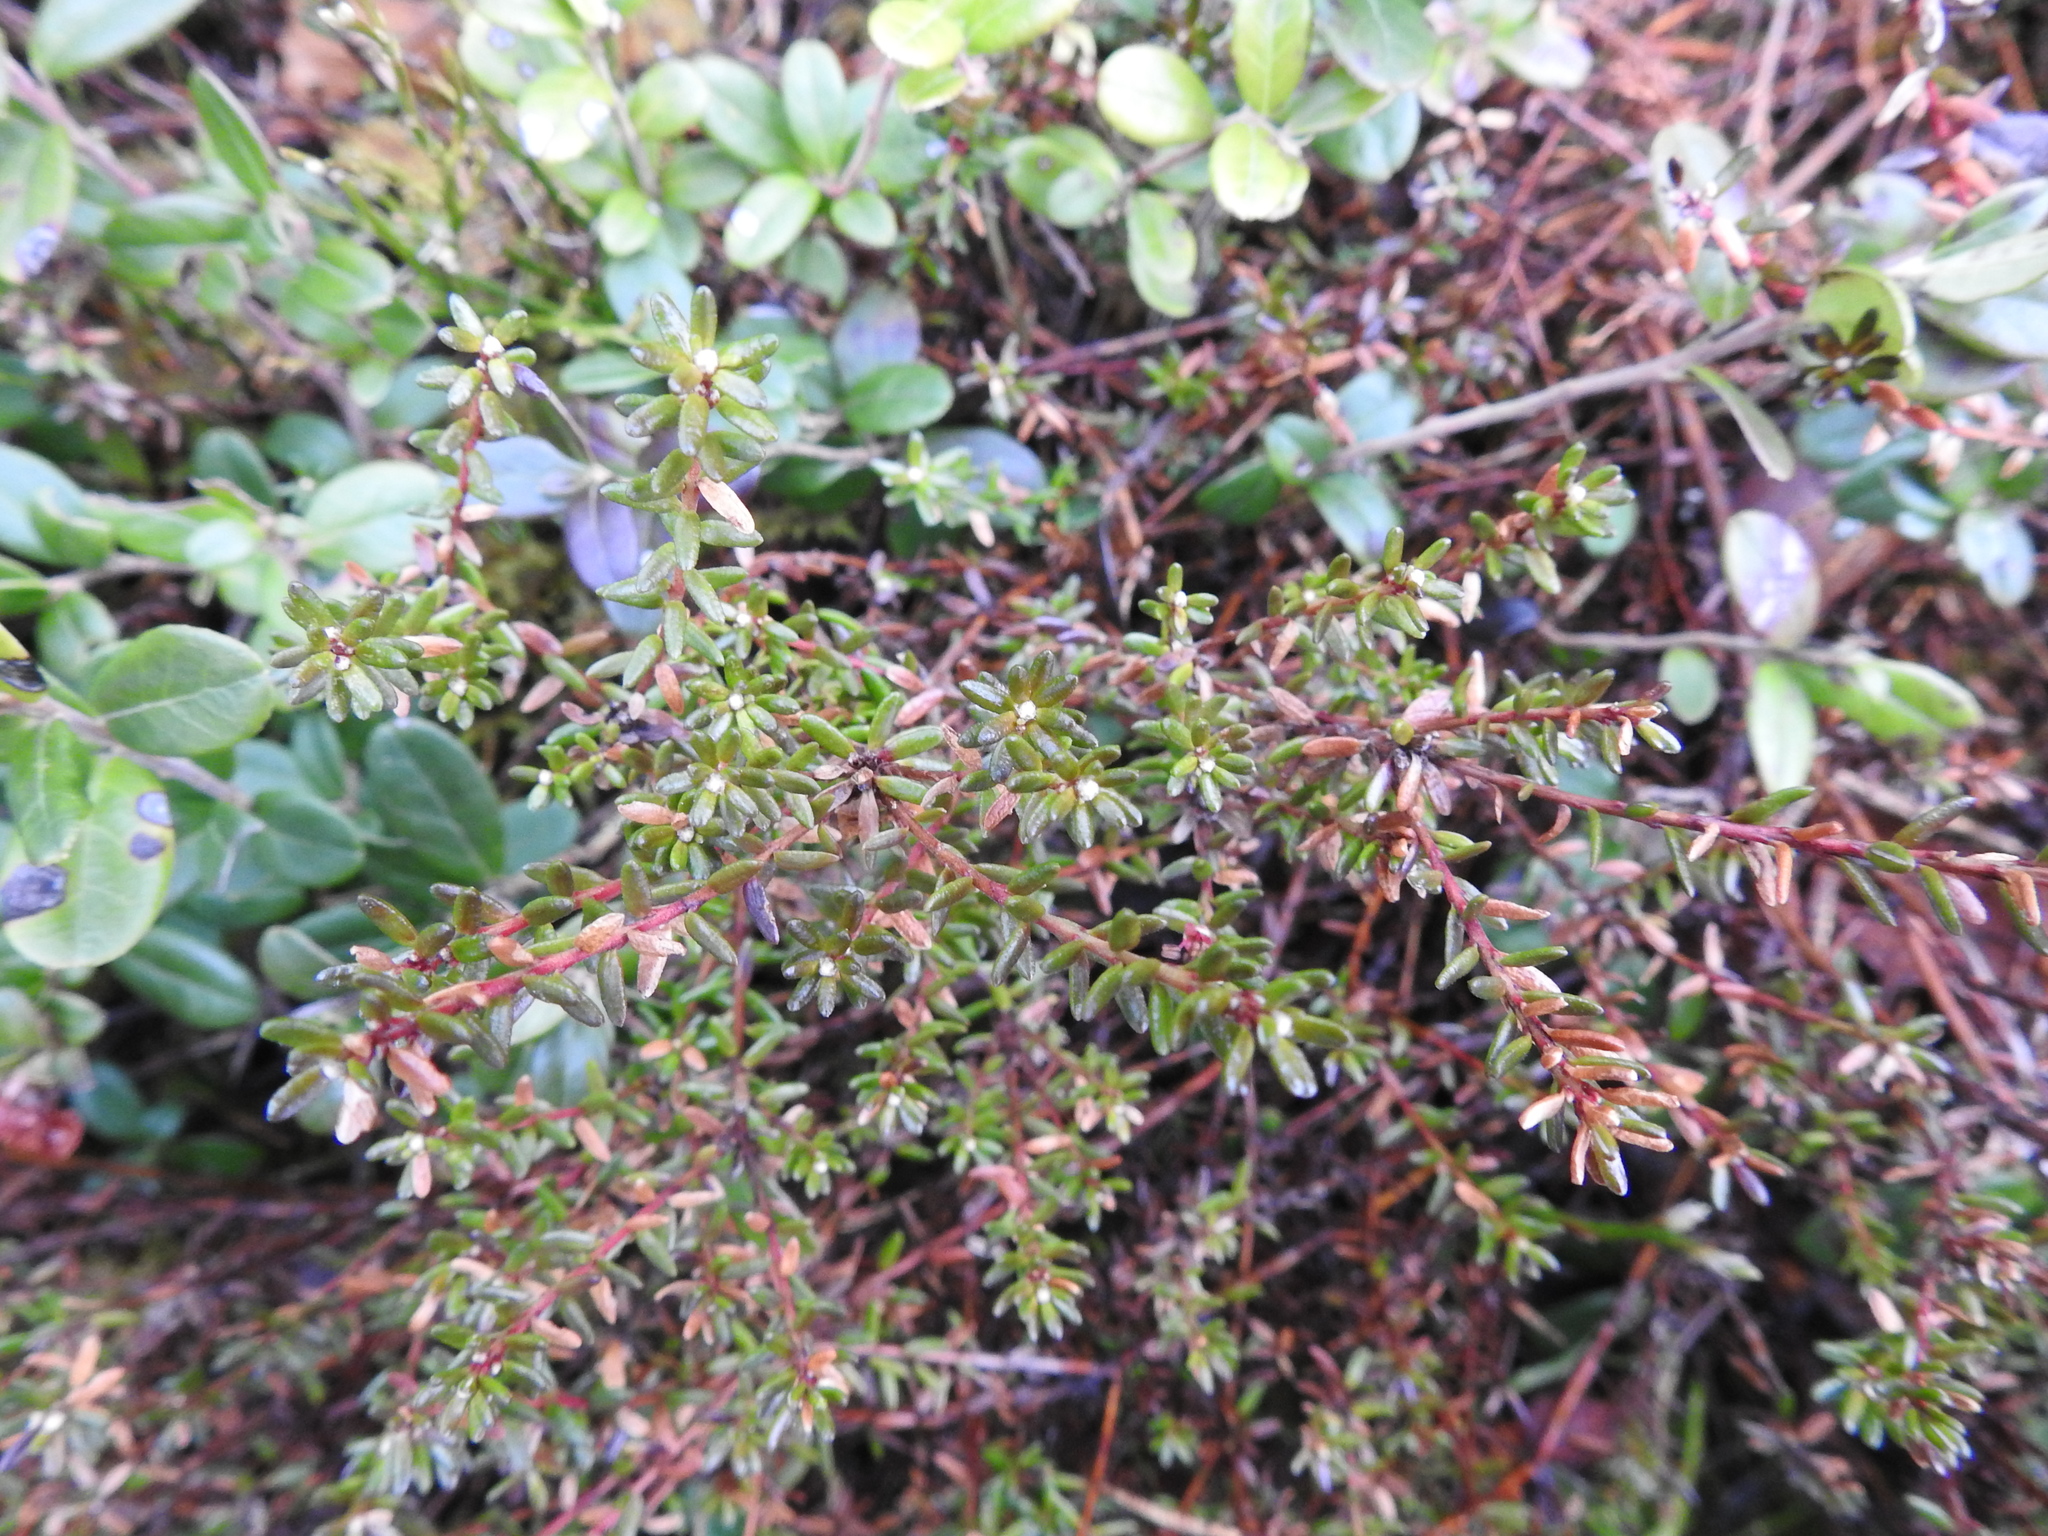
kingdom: Plantae
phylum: Tracheophyta
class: Magnoliopsida
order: Ericales
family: Ericaceae
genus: Empetrum
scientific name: Empetrum nigrum
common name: Black crowberry
